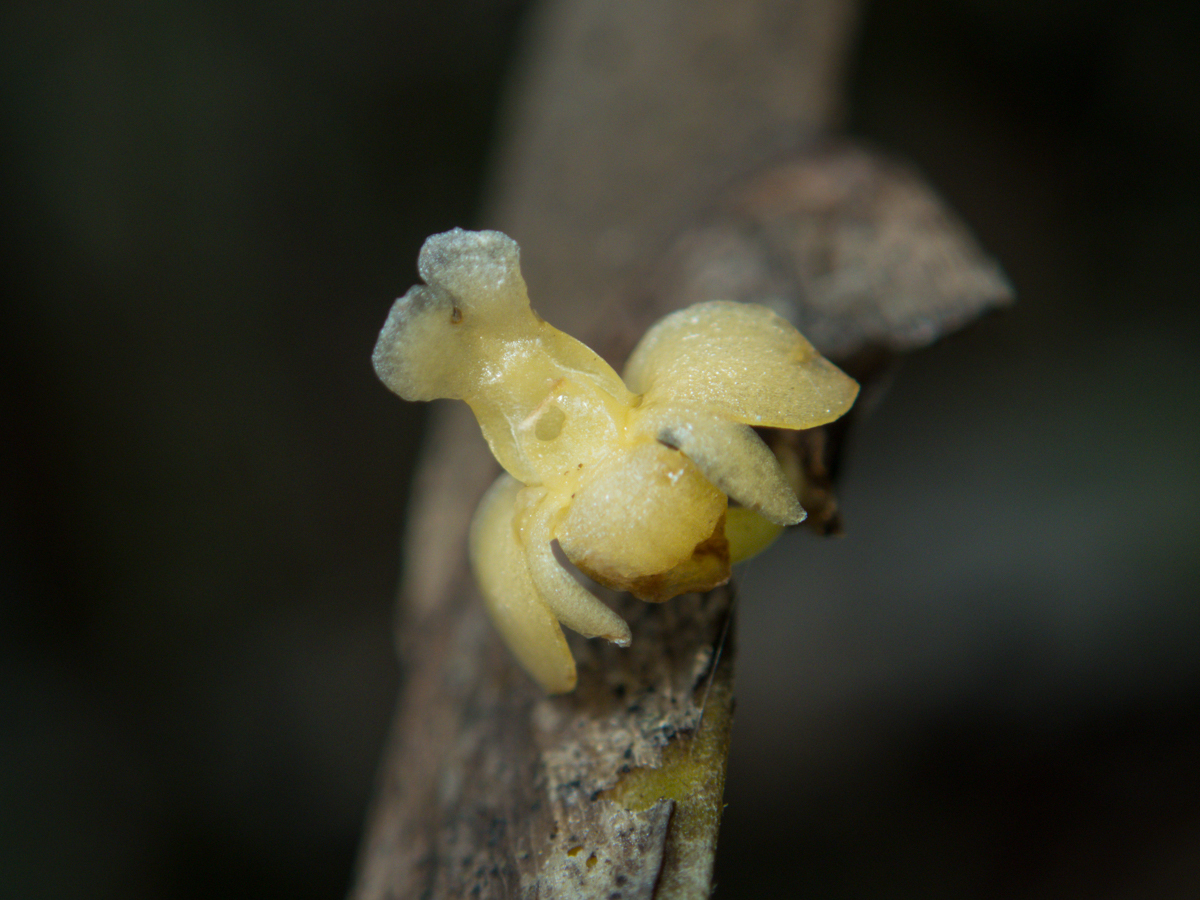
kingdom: Plantae
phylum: Tracheophyta
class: Liliopsida
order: Asparagales
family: Orchidaceae
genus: Dendrobium
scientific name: Dendrobium aloifolium
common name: Aloe-like dendrobium
